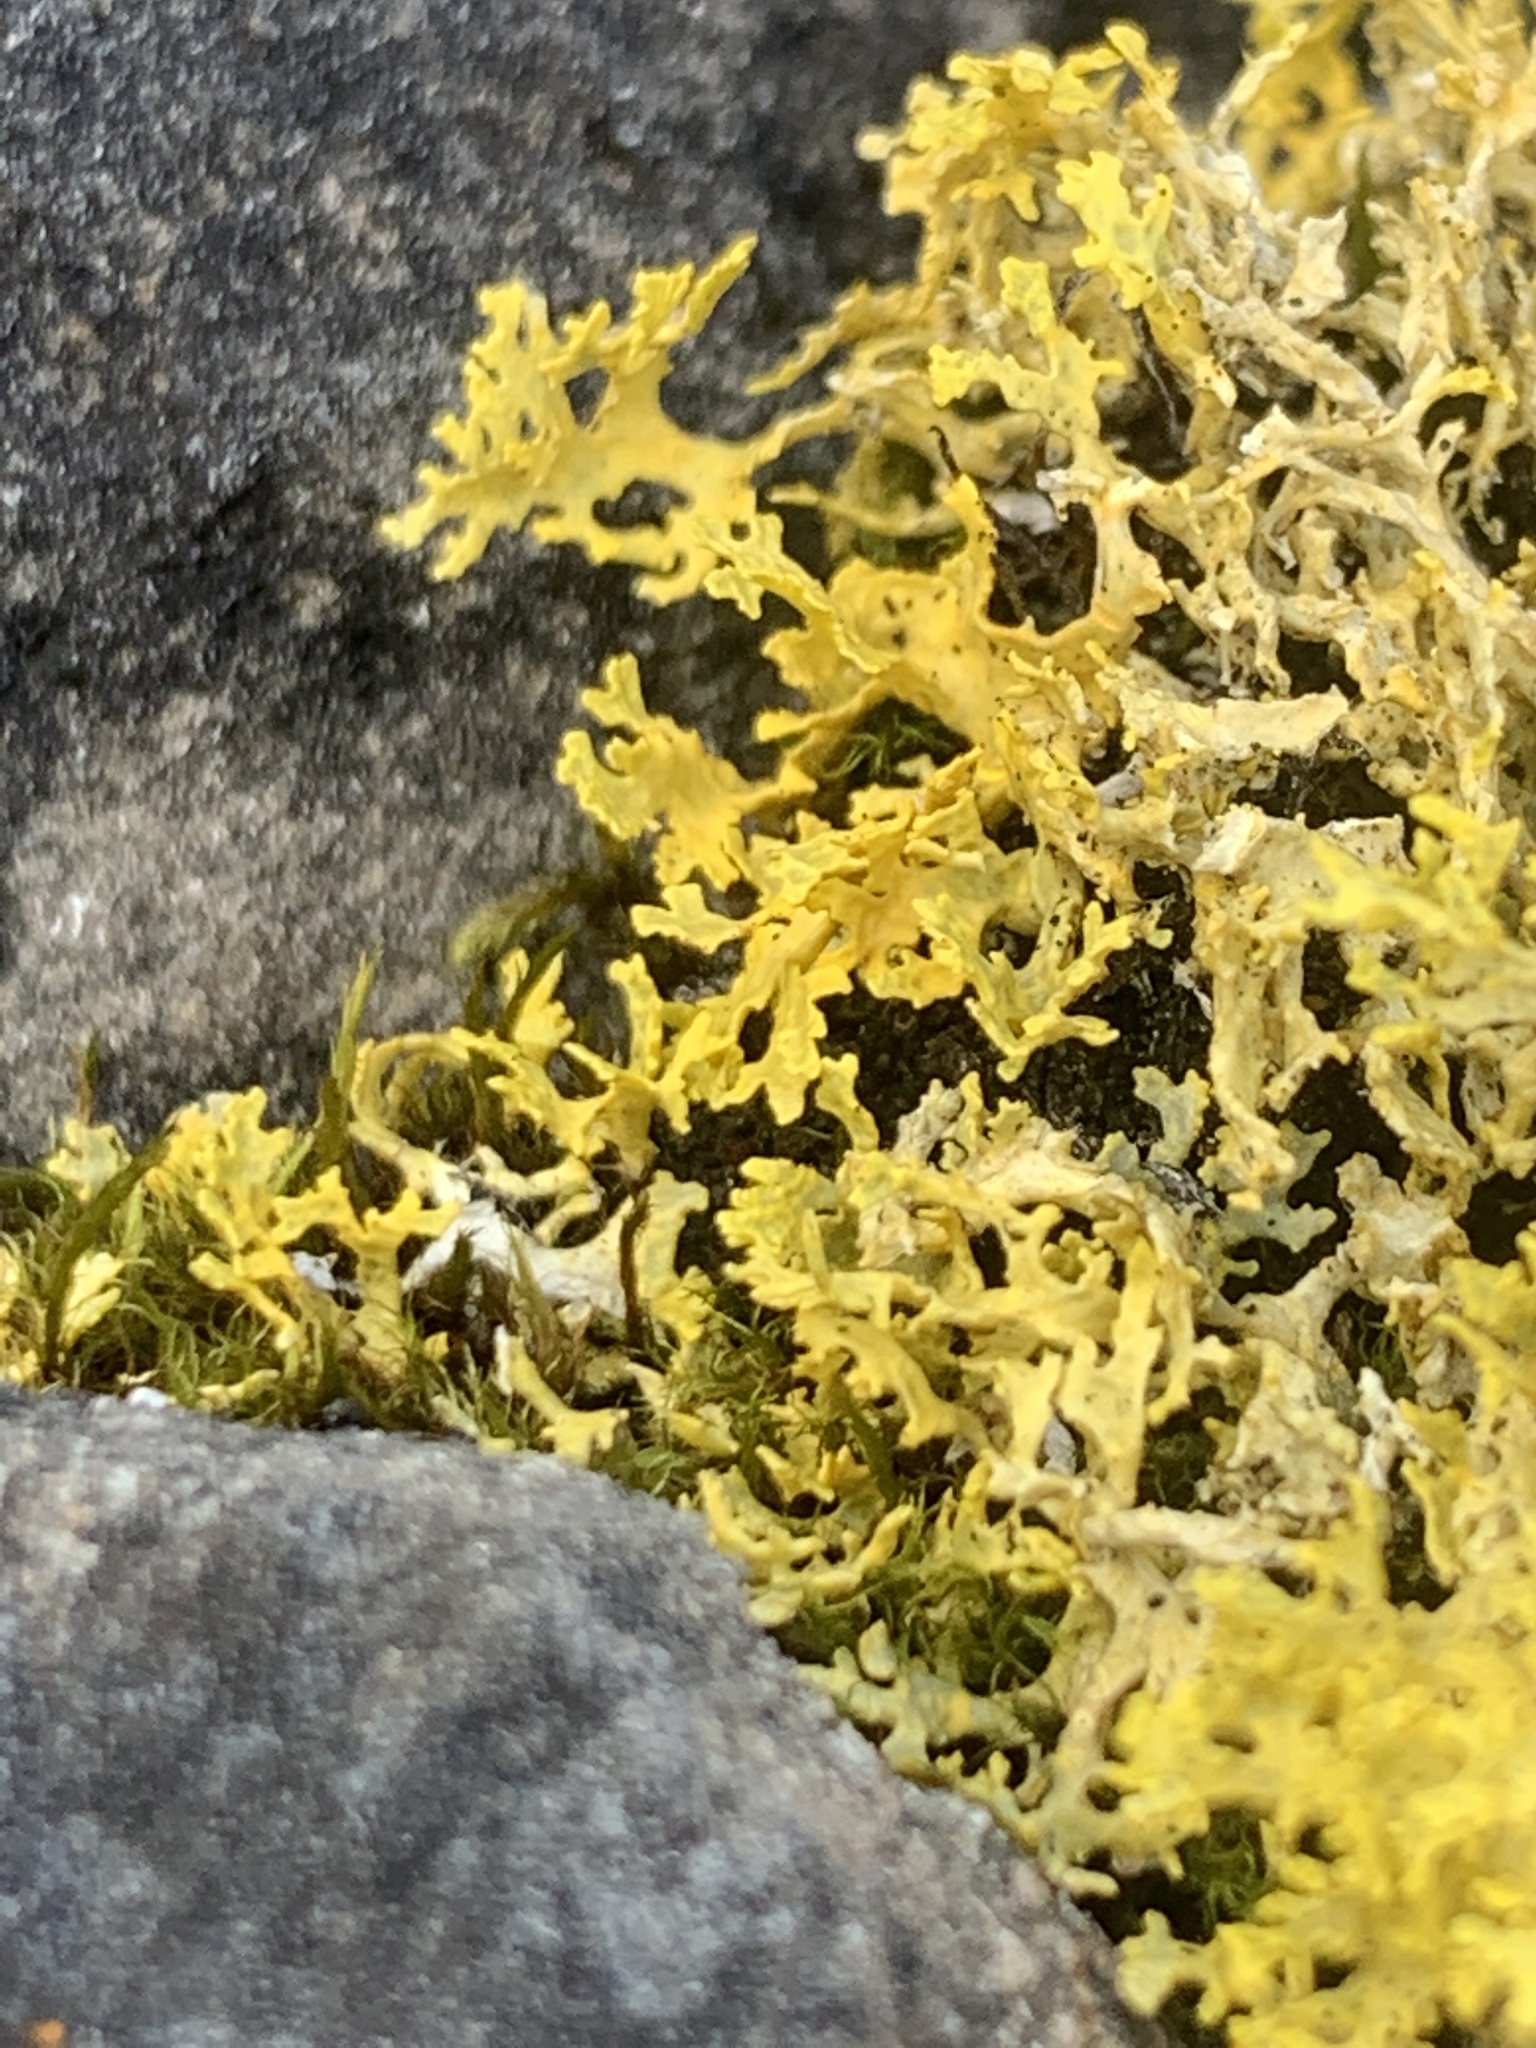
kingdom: Fungi
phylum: Ascomycota
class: Lecanoromycetes
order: Lecanorales
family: Parmeliaceae
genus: Vulpicida
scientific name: Vulpicida juniperinus
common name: Yellow lichen
